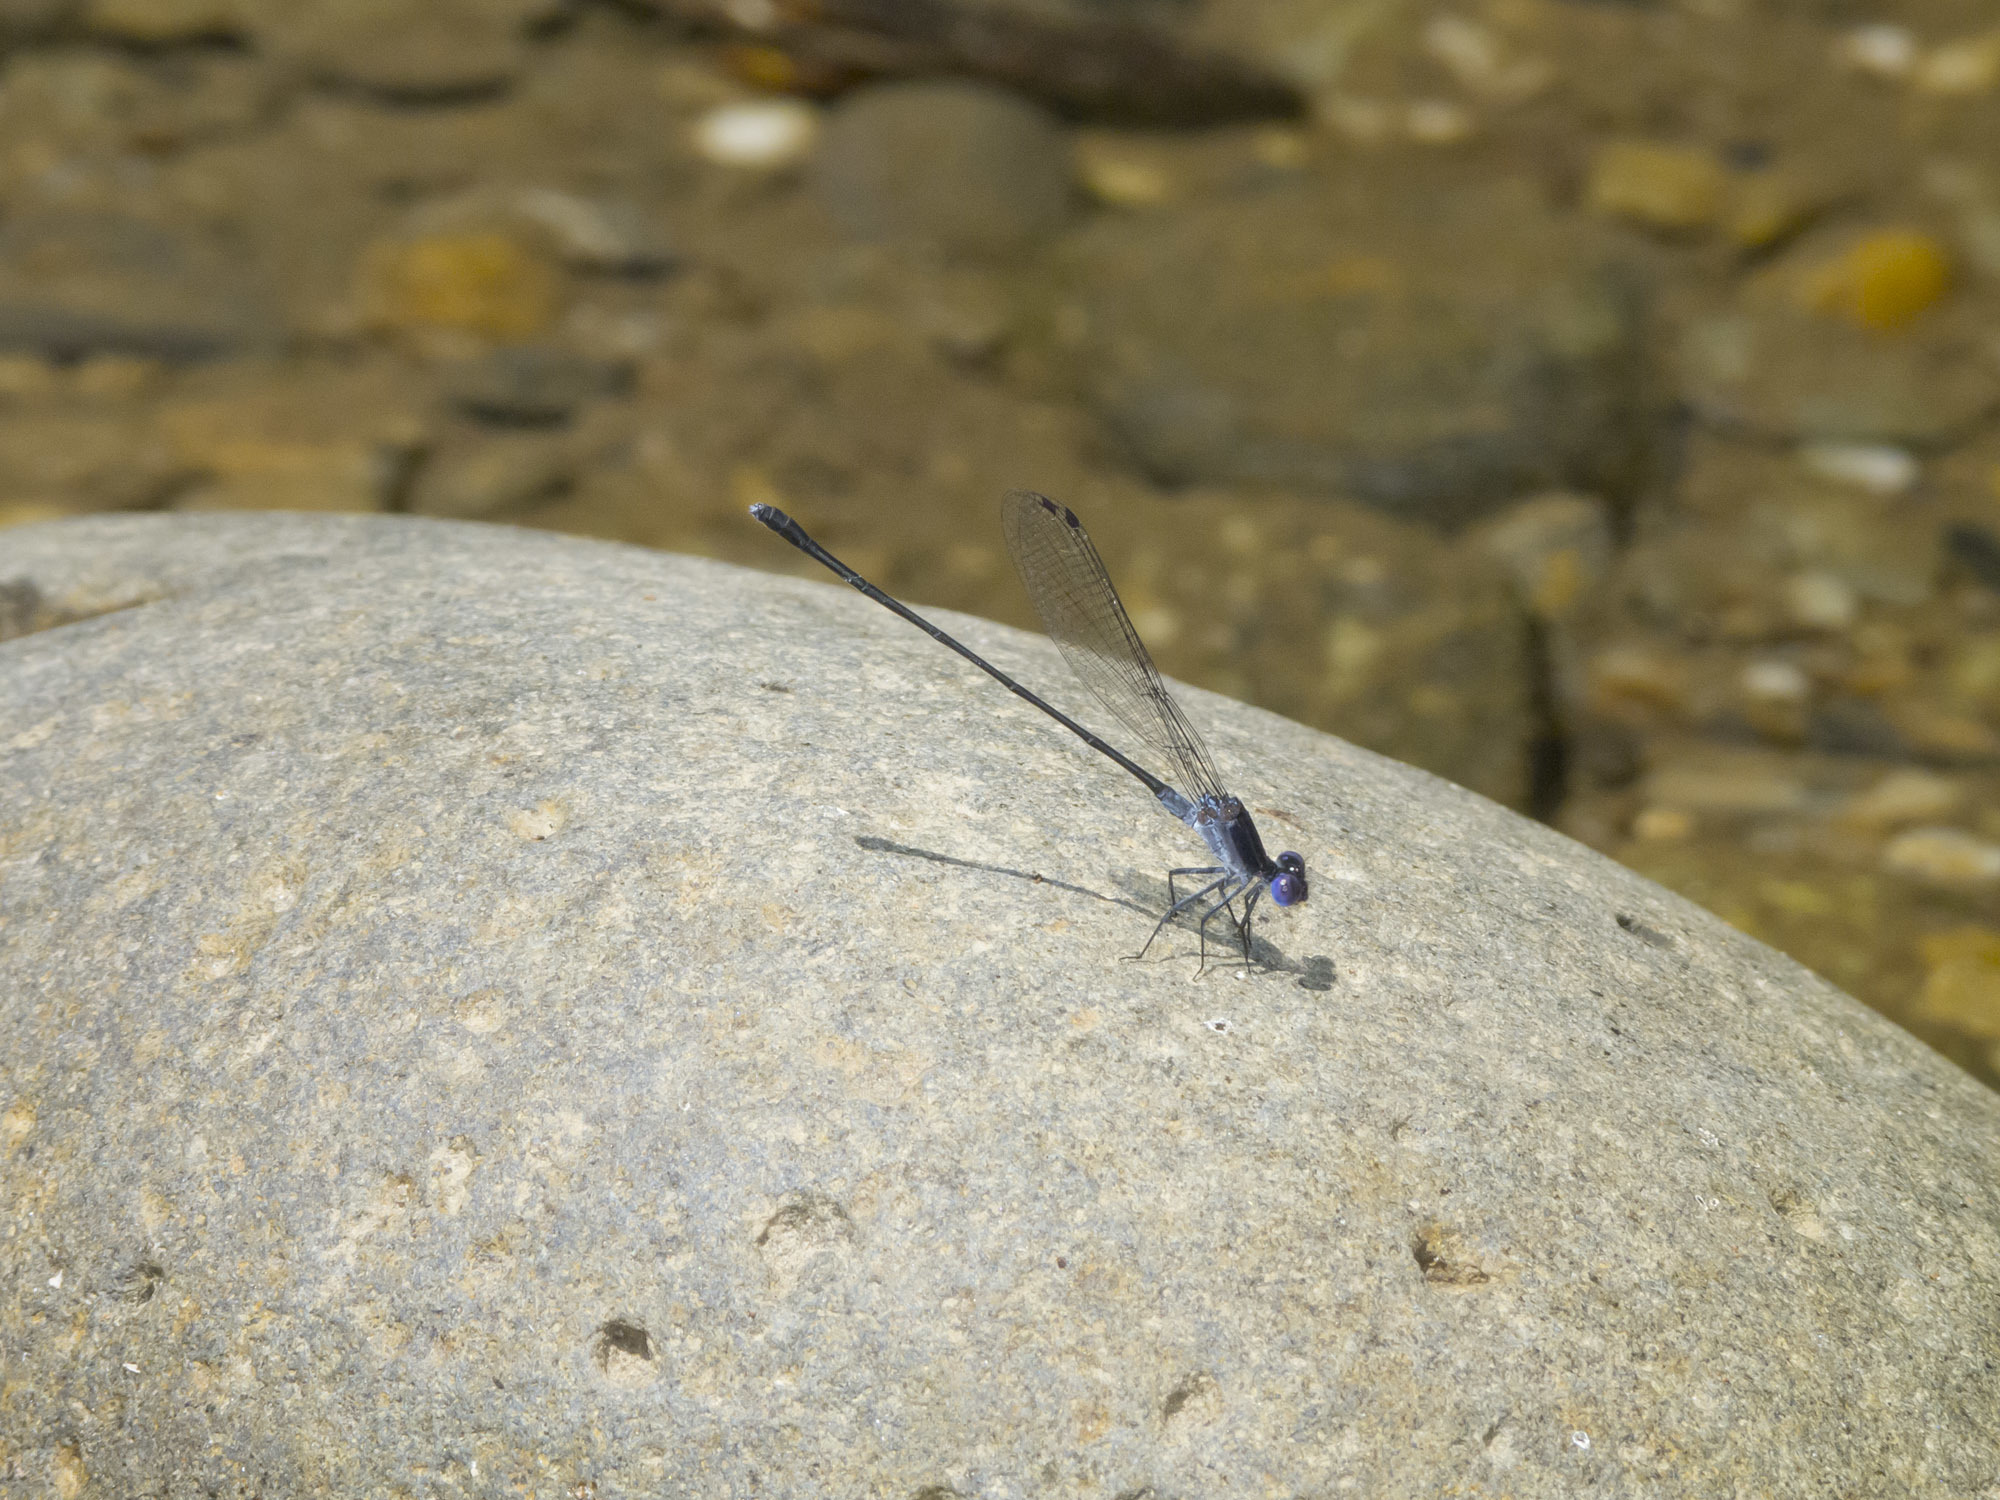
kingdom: Animalia
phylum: Arthropoda
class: Insecta
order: Odonata
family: Coenagrionidae
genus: Argia
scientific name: Argia translata
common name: Dusky dancer
